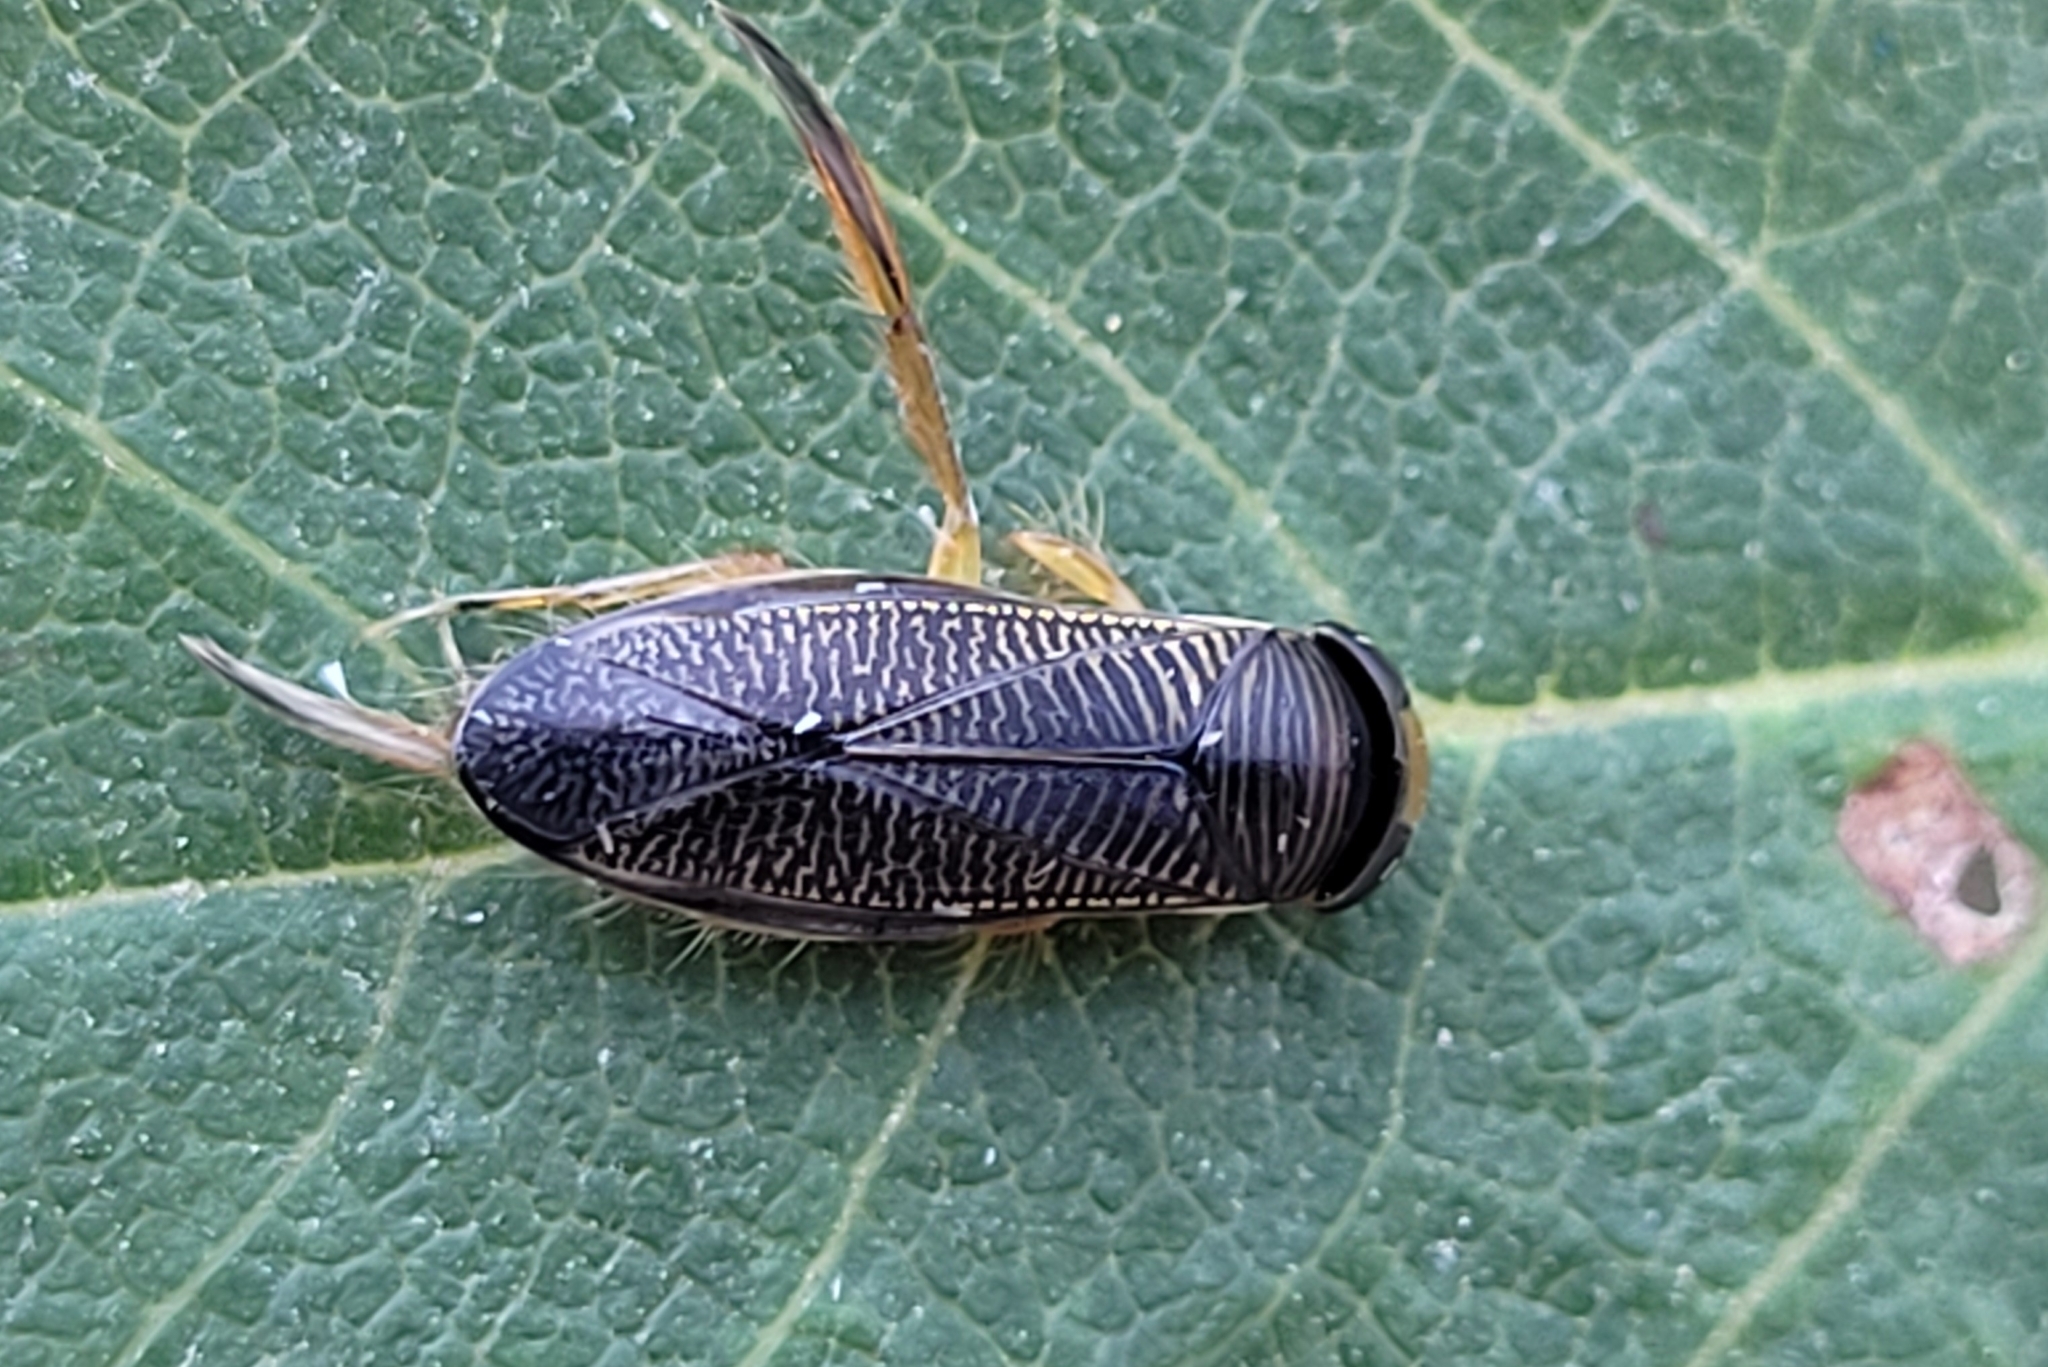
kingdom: Animalia
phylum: Arthropoda
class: Insecta
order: Hemiptera
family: Corixidae
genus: Sigara
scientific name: Sigara decoratella
